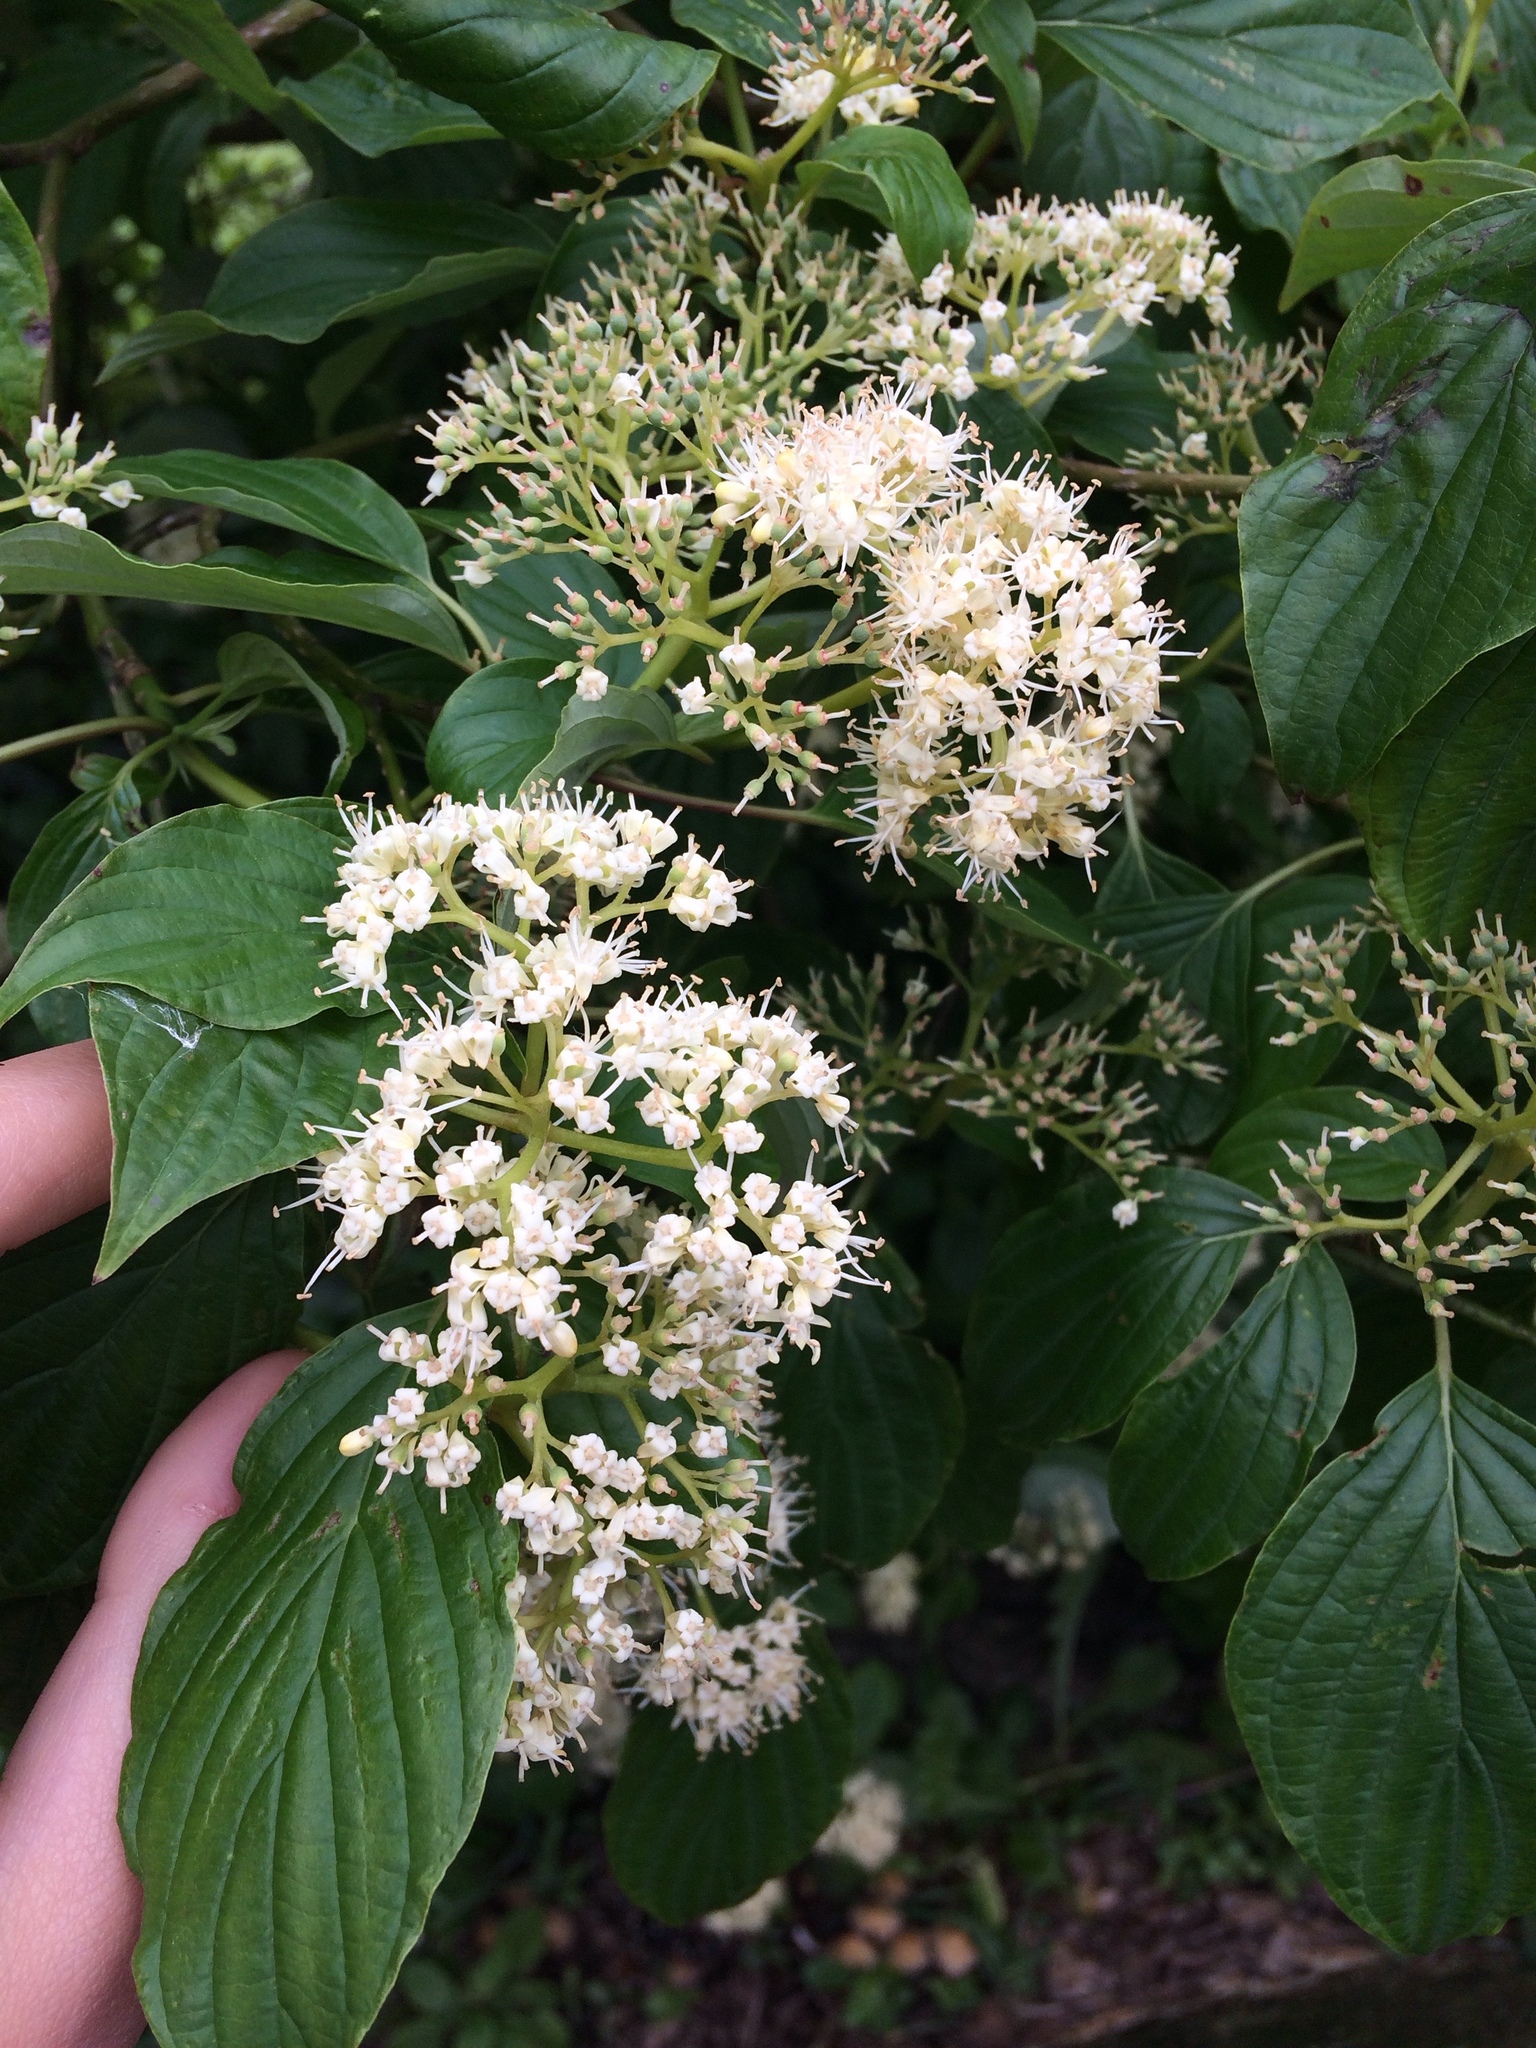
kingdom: Plantae
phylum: Tracheophyta
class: Magnoliopsida
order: Cornales
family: Cornaceae
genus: Cornus
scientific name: Cornus alternifolia
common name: Pagoda dogwood
